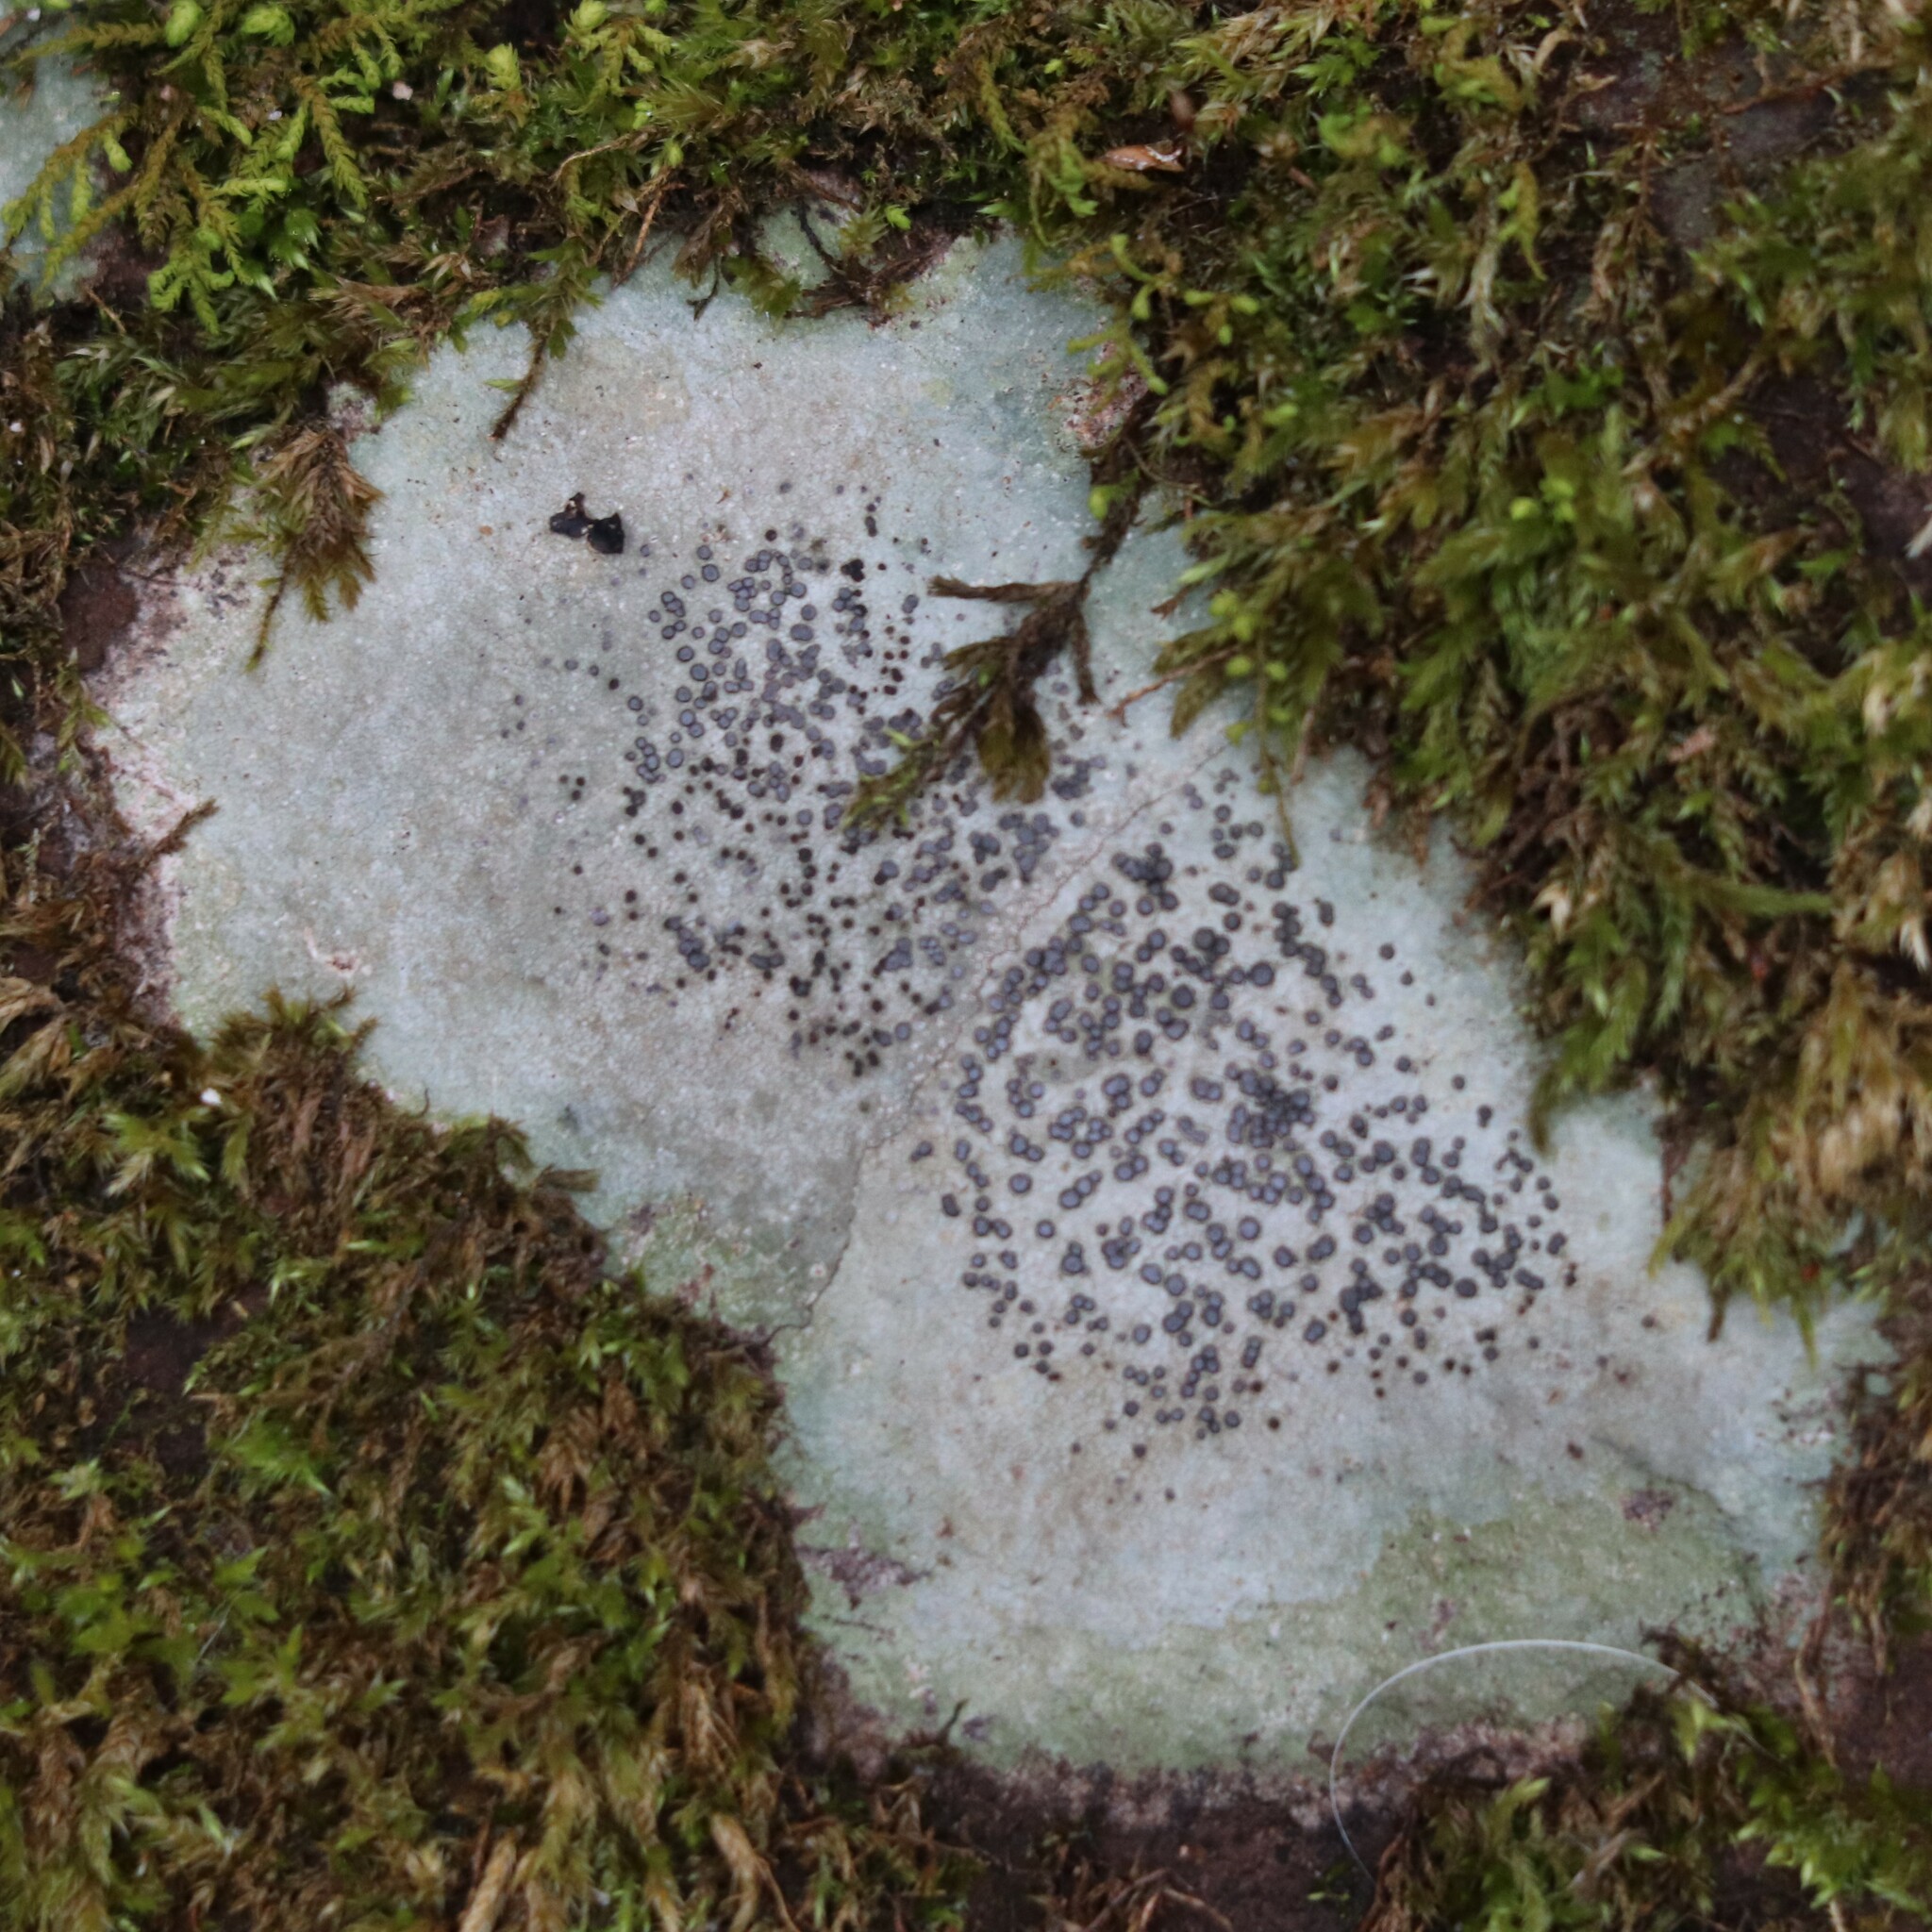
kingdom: Fungi
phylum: Ascomycota
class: Lecanoromycetes
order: Lecideales
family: Lecideaceae
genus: Porpidia
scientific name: Porpidia albocaerulescens
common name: Smokey-eyed boulder lichen
